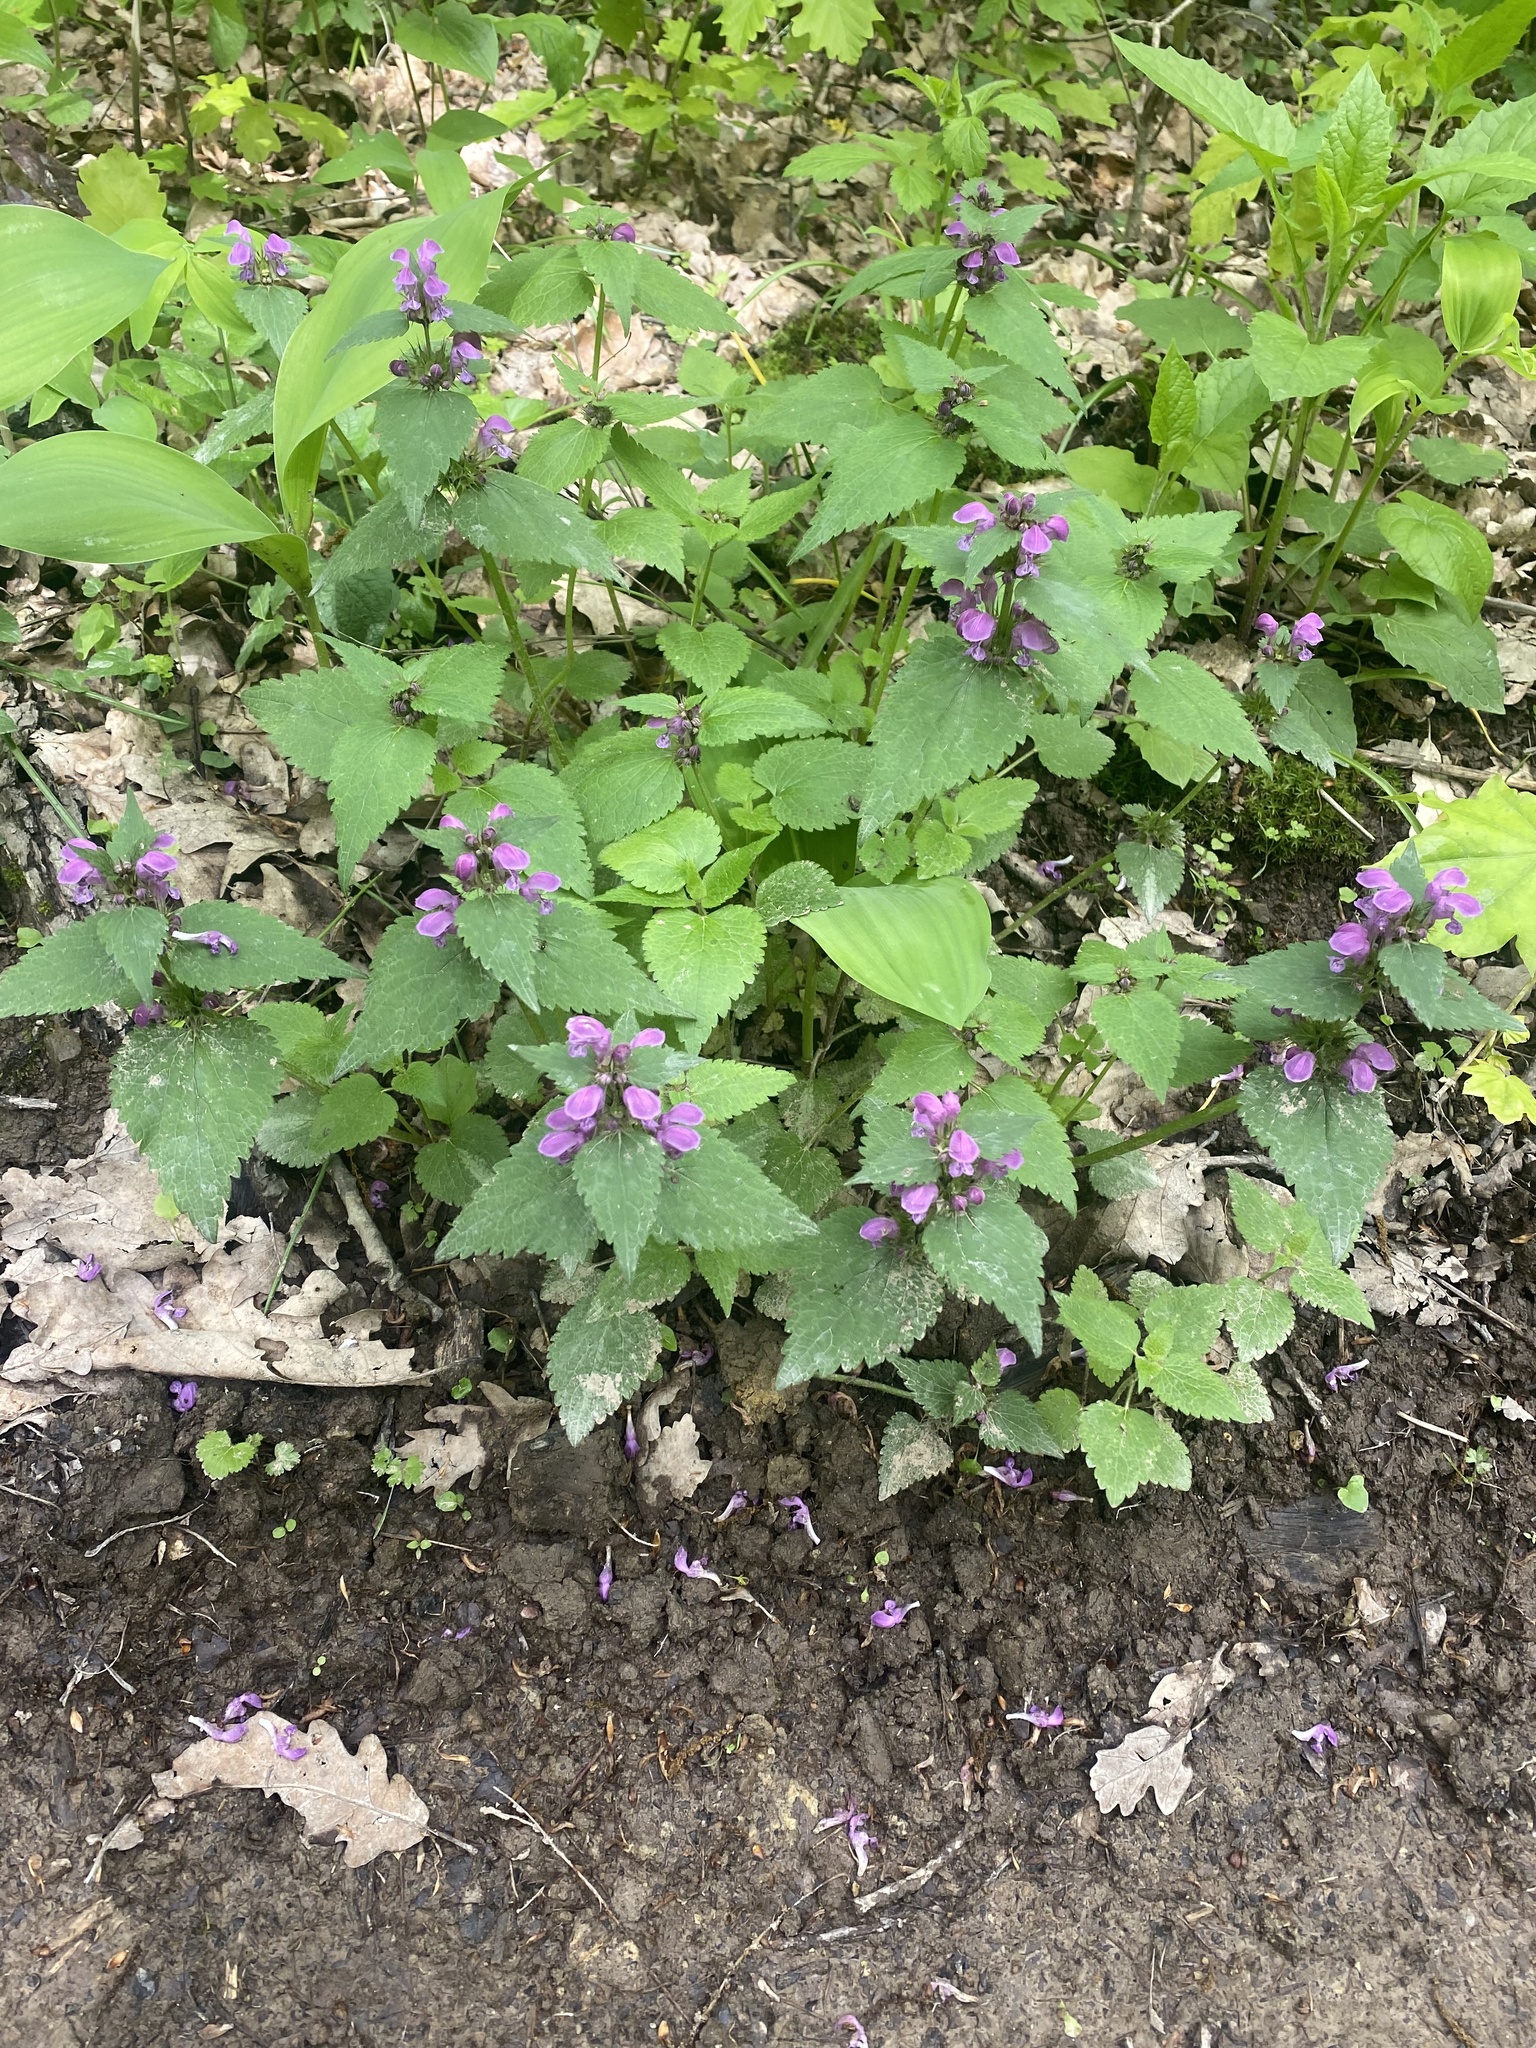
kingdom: Plantae
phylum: Tracheophyta
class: Magnoliopsida
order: Lamiales
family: Lamiaceae
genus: Lamium
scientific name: Lamium maculatum
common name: Spotted dead-nettle
